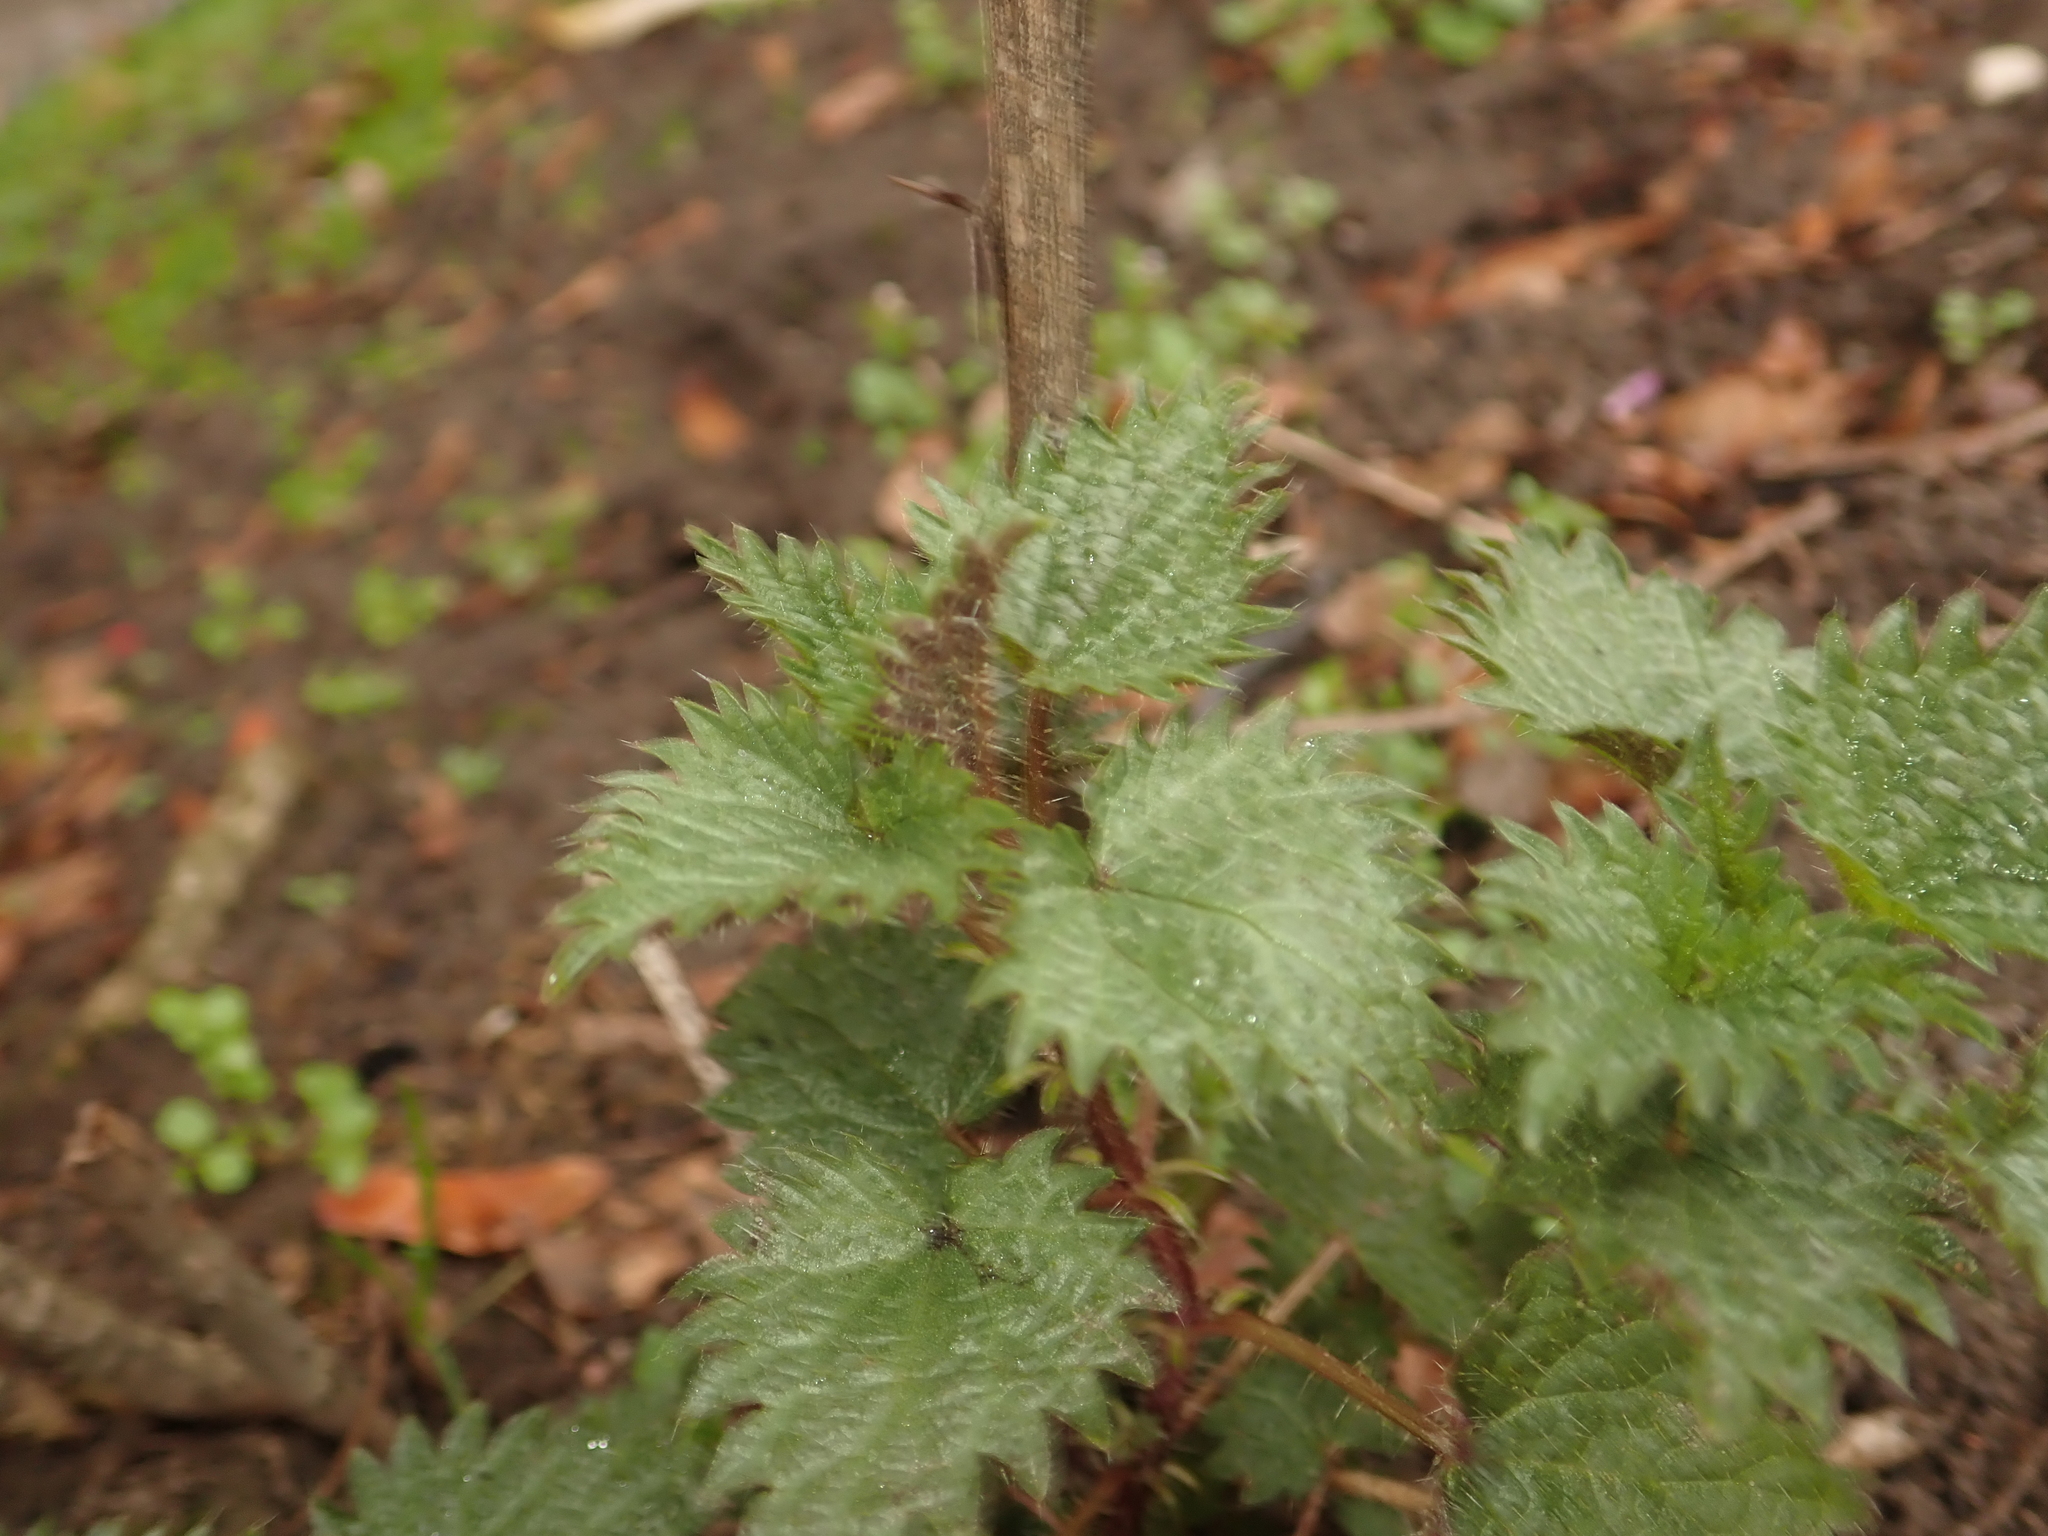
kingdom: Plantae
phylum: Tracheophyta
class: Magnoliopsida
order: Rosales
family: Urticaceae
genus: Urtica
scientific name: Urtica dioica
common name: Common nettle
